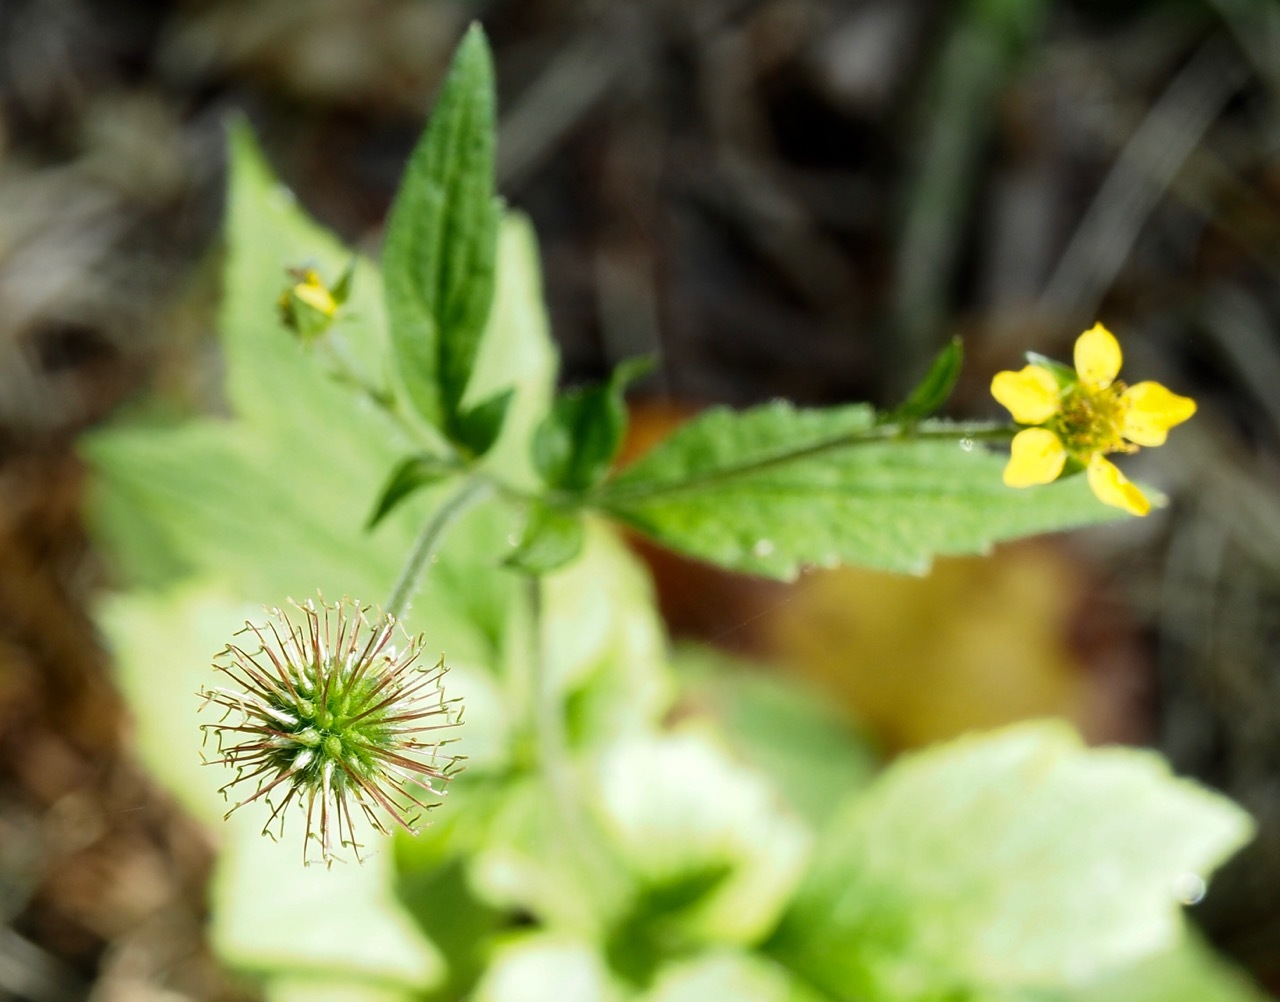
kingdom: Plantae
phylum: Tracheophyta
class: Magnoliopsida
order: Rosales
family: Rosaceae
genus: Geum
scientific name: Geum urbanum
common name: Wood avens
